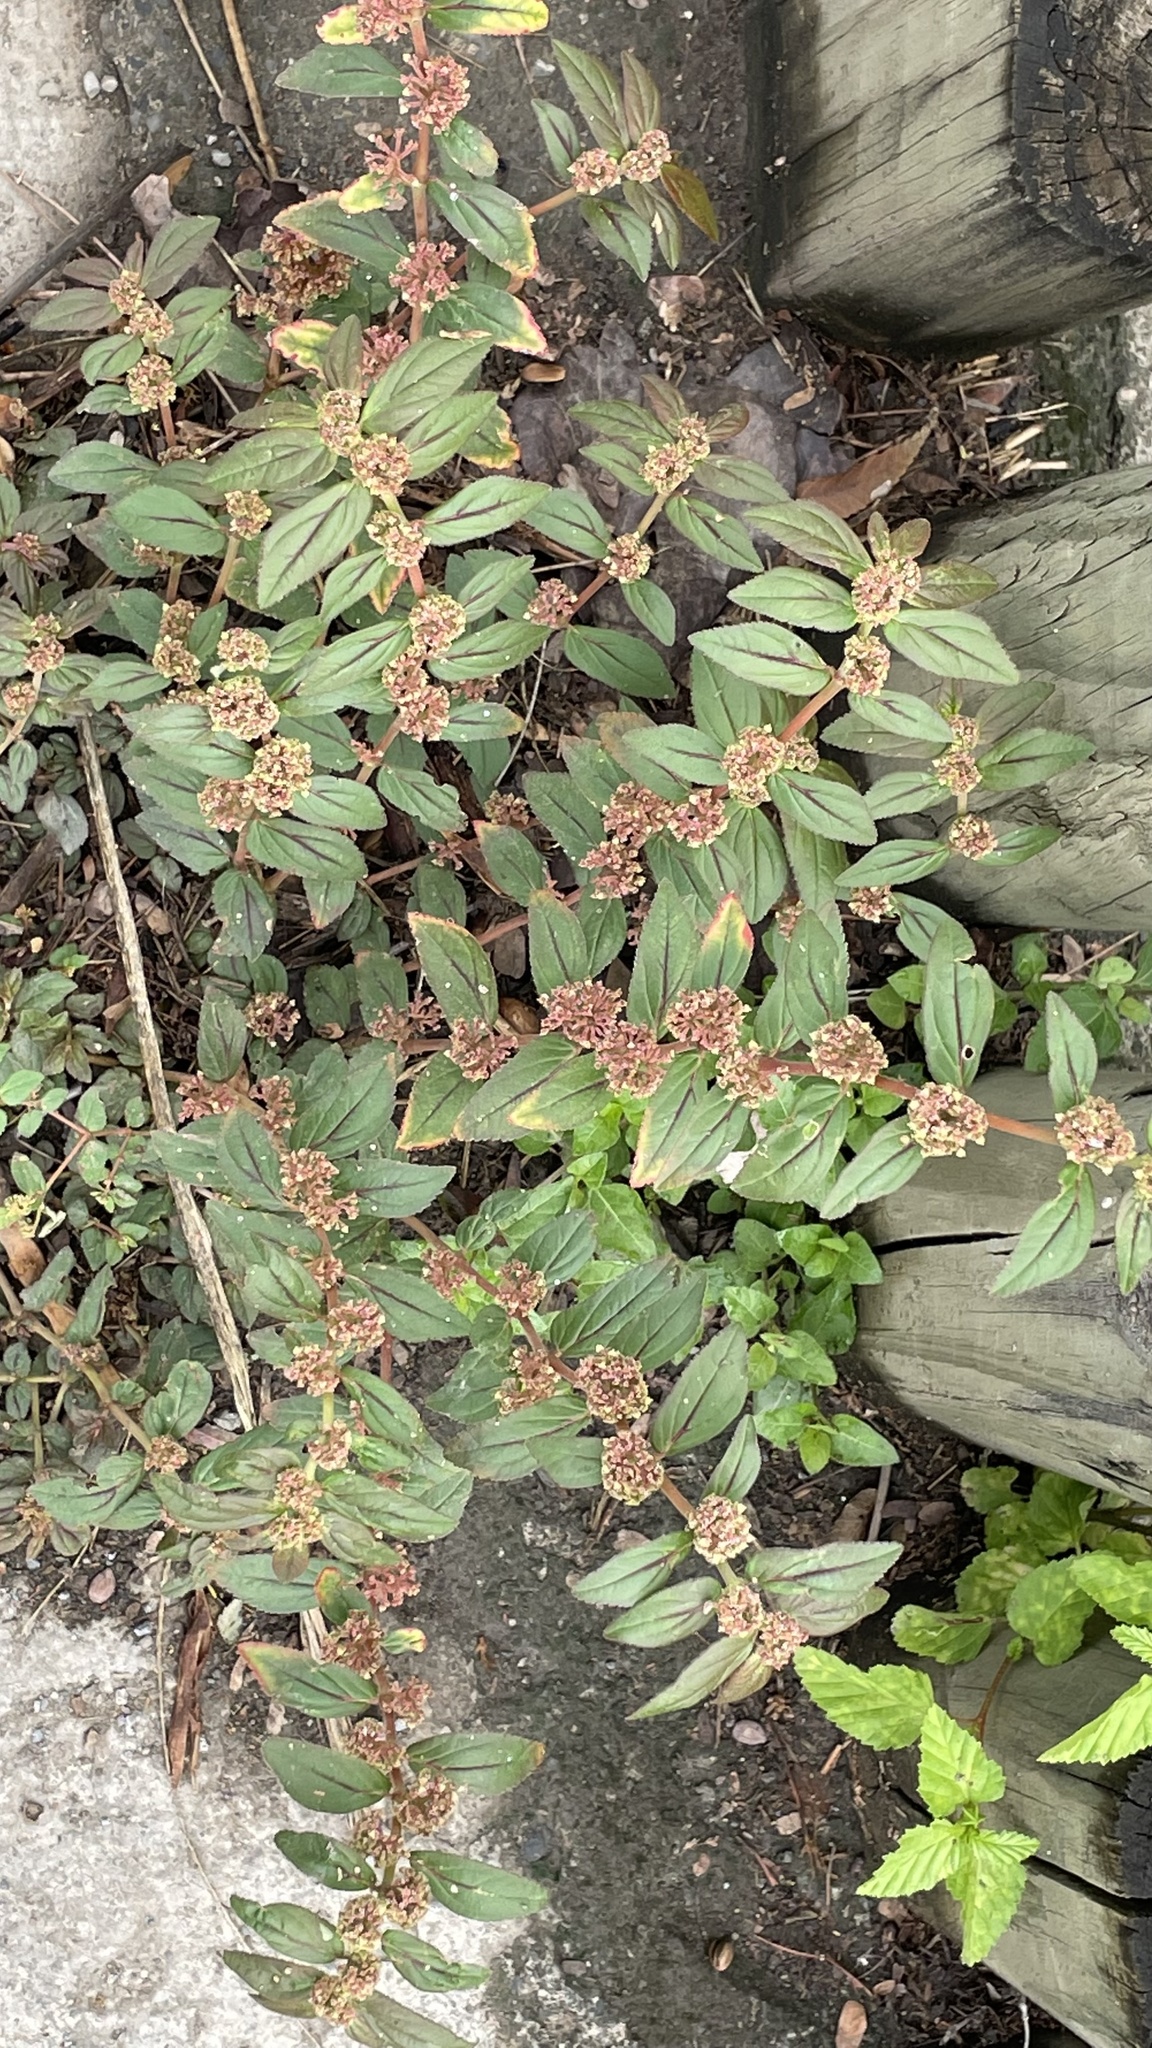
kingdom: Plantae
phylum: Tracheophyta
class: Magnoliopsida
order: Malpighiales
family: Euphorbiaceae
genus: Euphorbia
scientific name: Euphorbia hirta
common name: Pillpod sandmat
